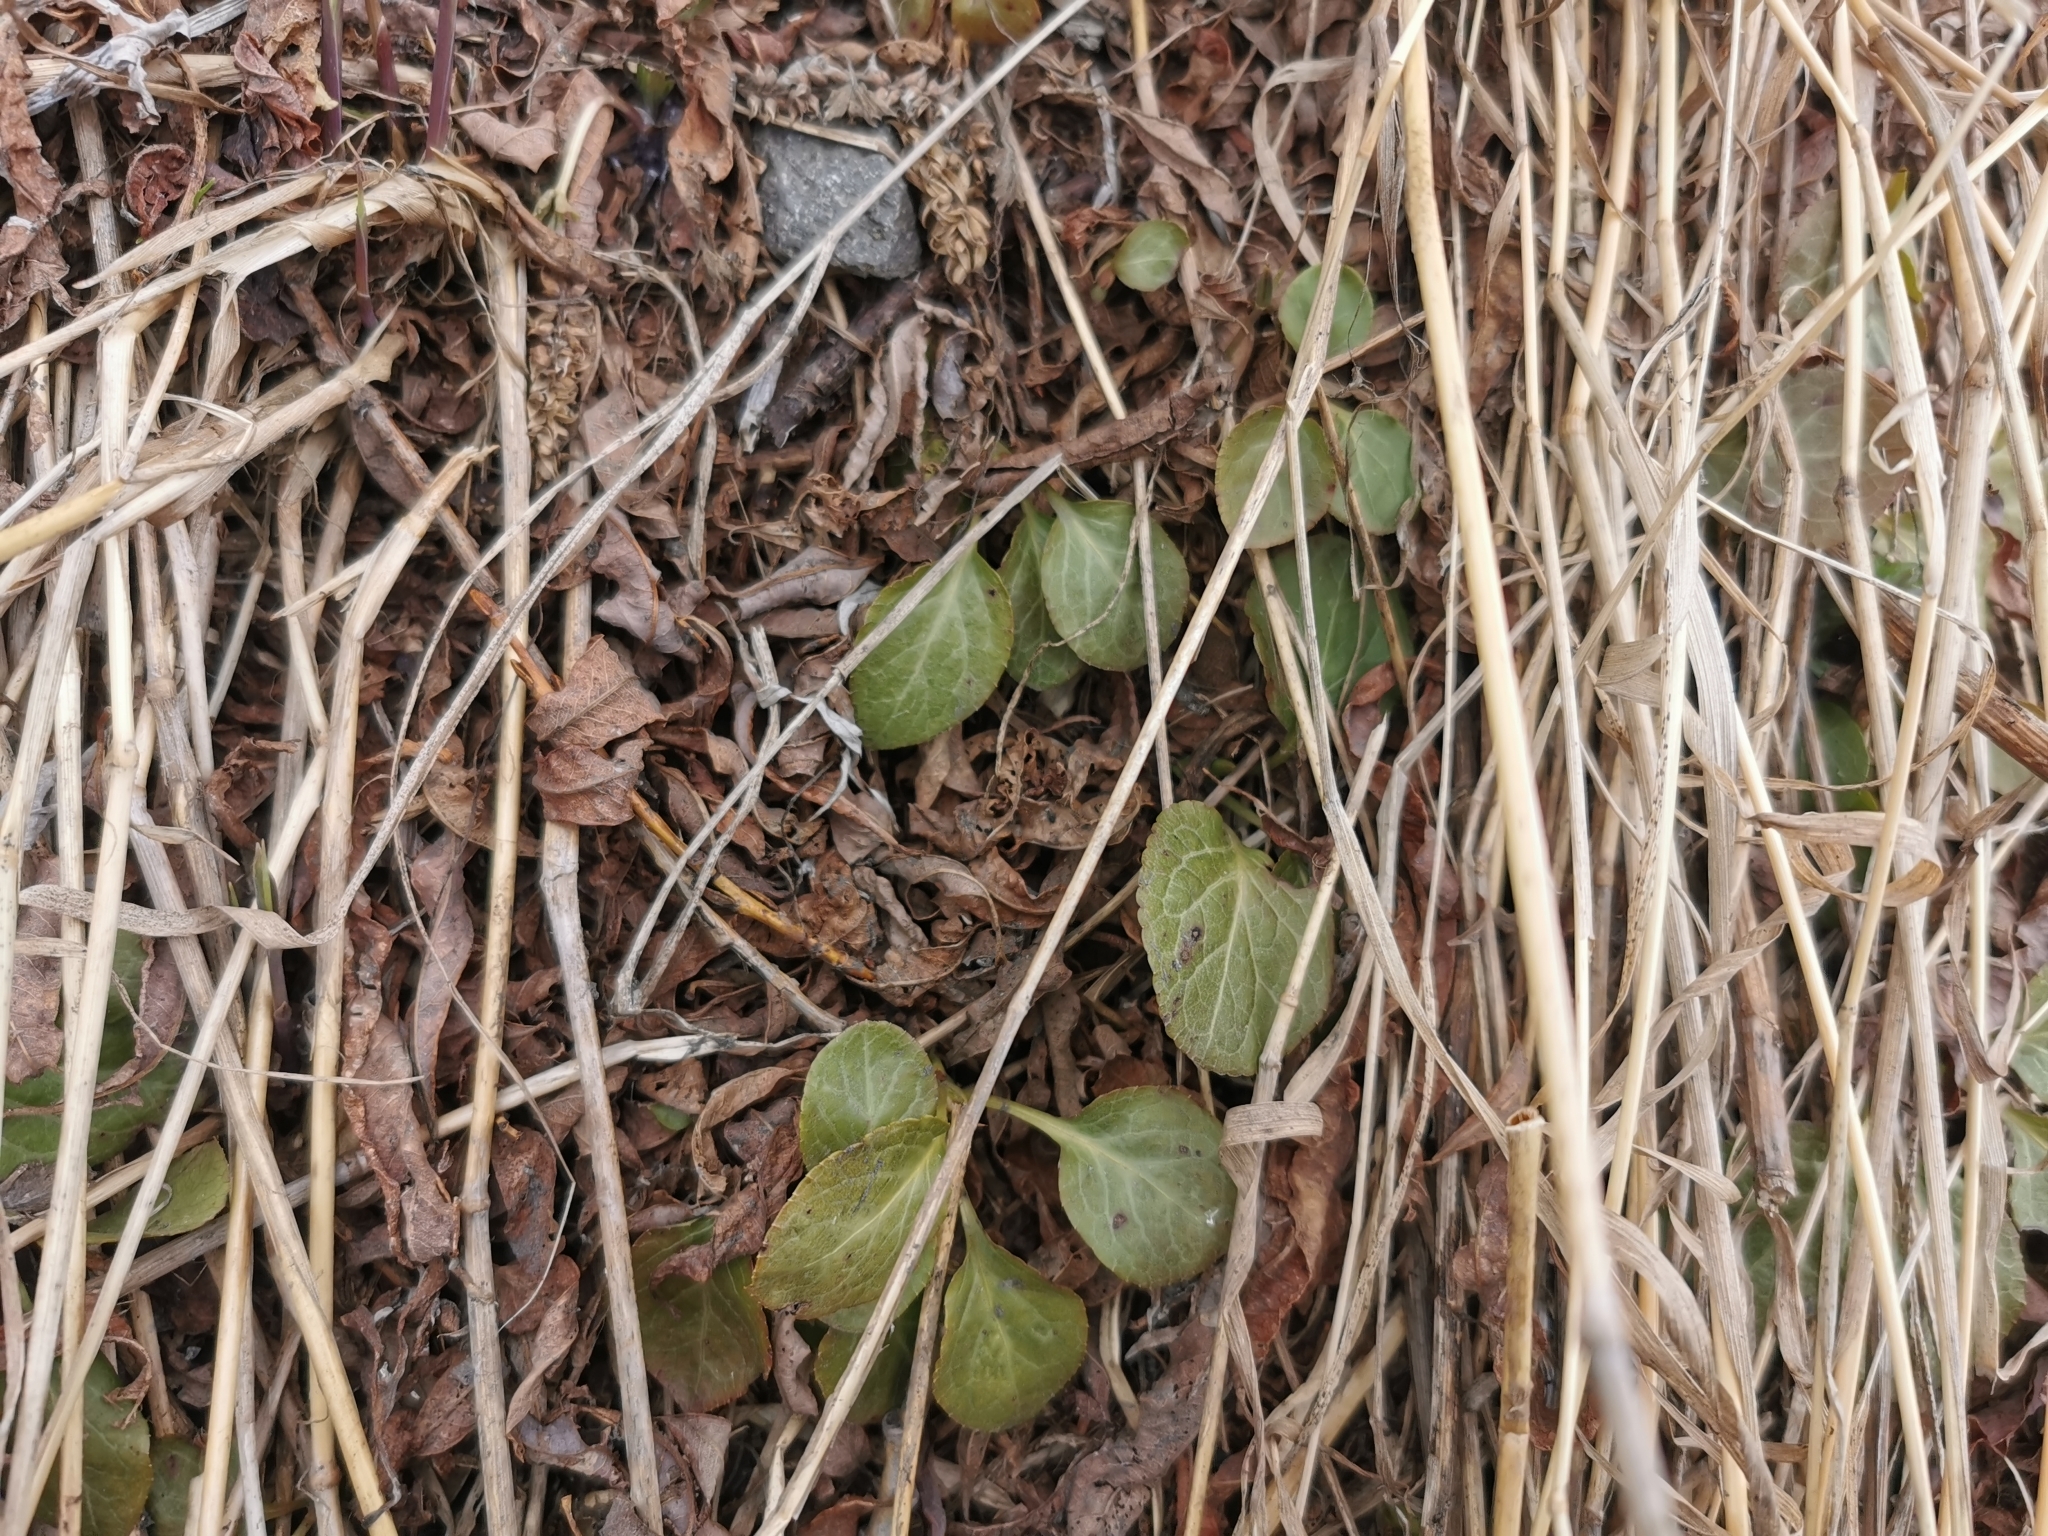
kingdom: Plantae
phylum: Tracheophyta
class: Magnoliopsida
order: Ericales
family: Ericaceae
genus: Pyrola
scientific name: Pyrola minor
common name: Common wintergreen
